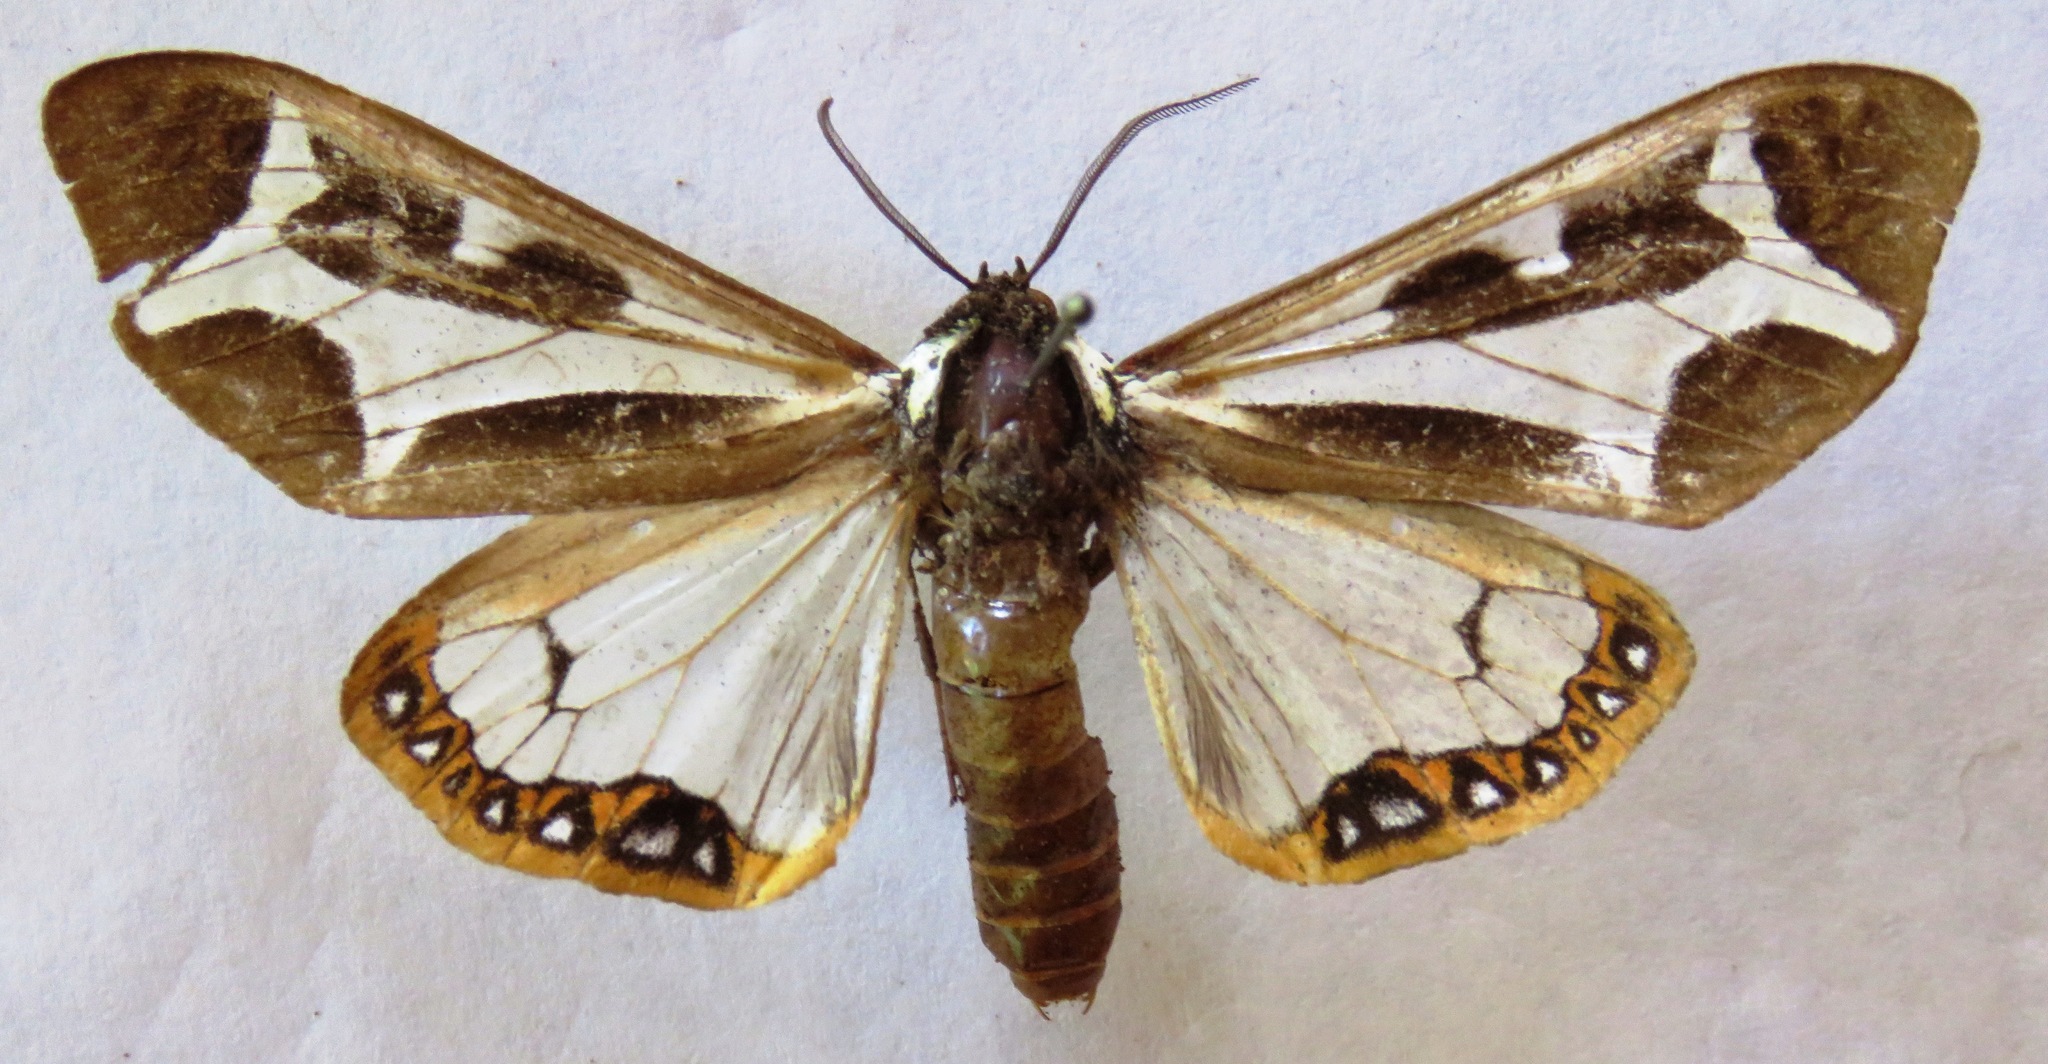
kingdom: Animalia
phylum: Arthropoda
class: Insecta
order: Lepidoptera
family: Erebidae
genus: Dysschema
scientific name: Dysschema mariamne
